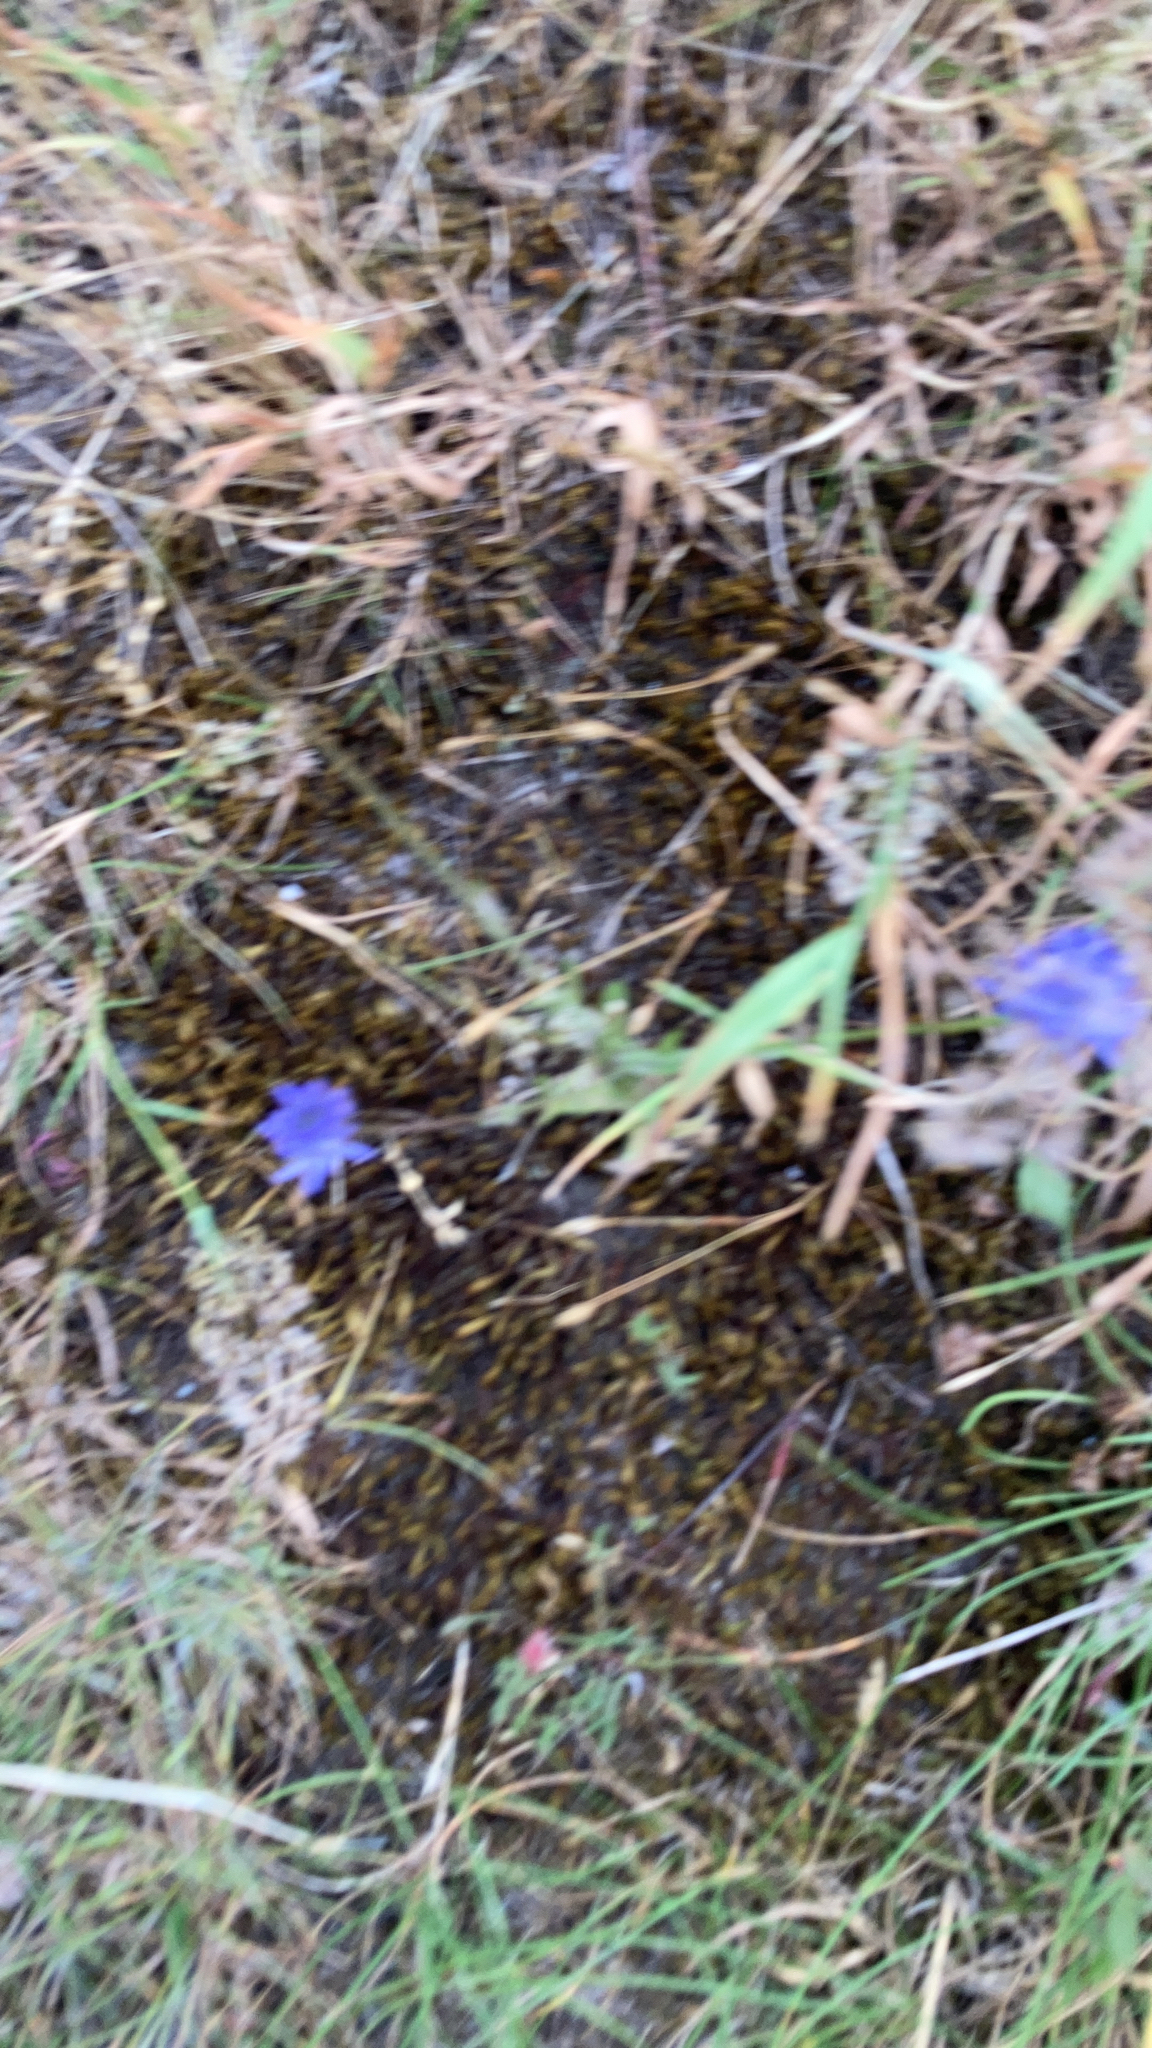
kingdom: Plantae
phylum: Tracheophyta
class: Magnoliopsida
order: Asterales
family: Campanulaceae
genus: Jasione
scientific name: Jasione montana
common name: Sheep's-bit
